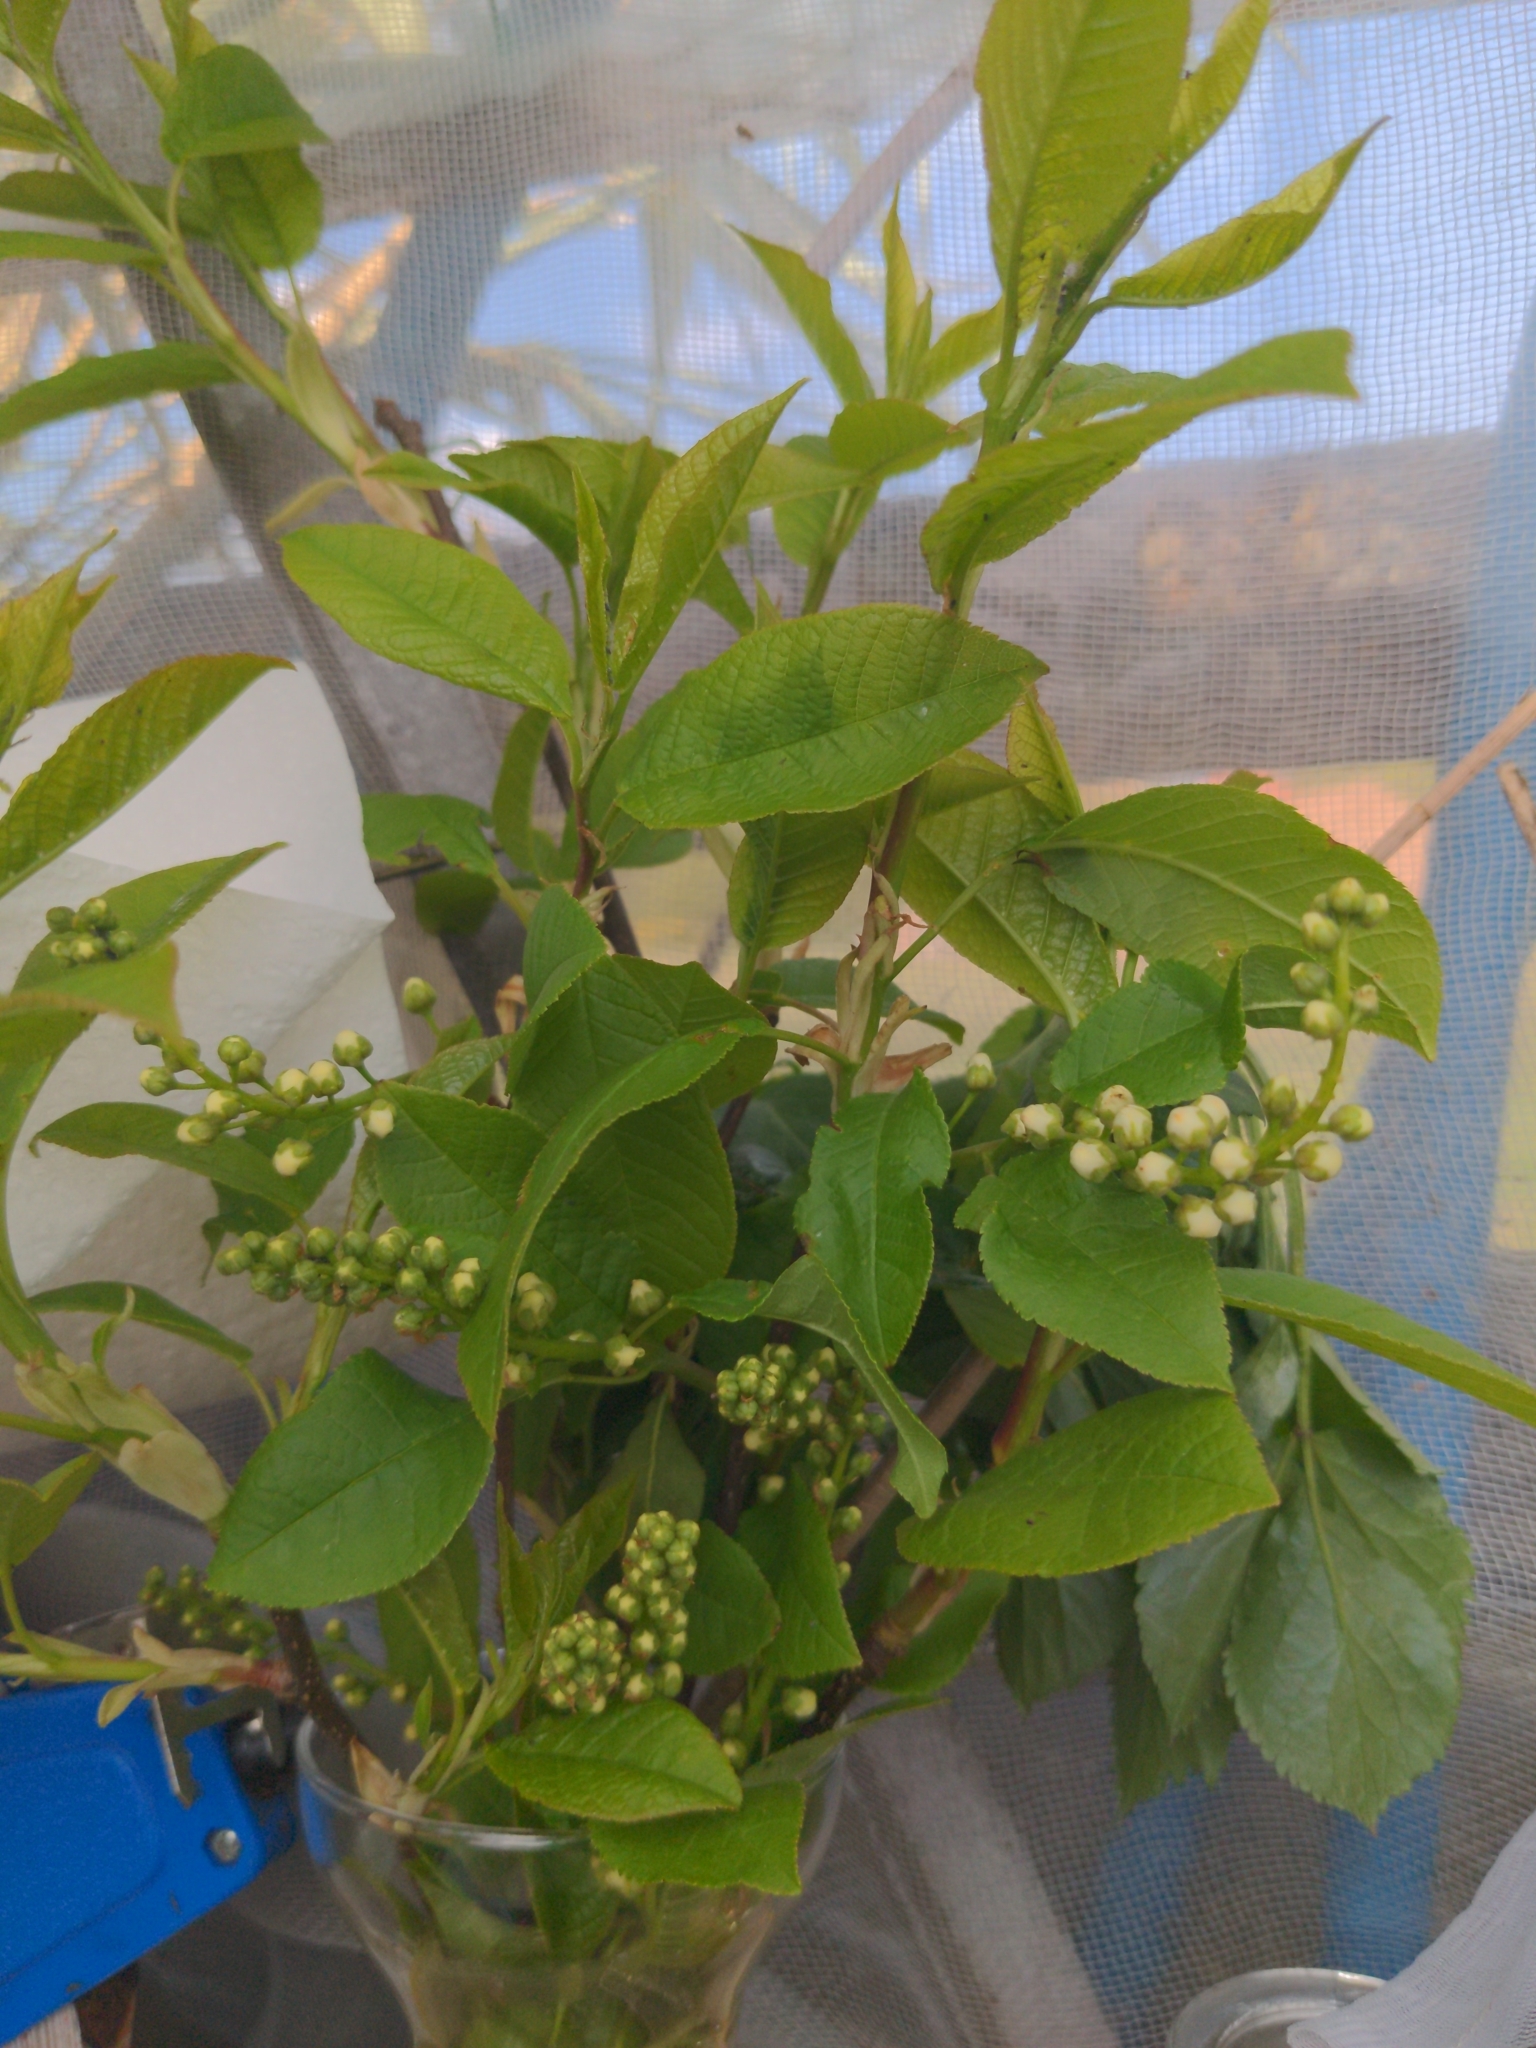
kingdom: Plantae
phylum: Tracheophyta
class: Magnoliopsida
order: Rosales
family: Rosaceae
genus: Prunus
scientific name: Prunus padus
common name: Bird cherry
